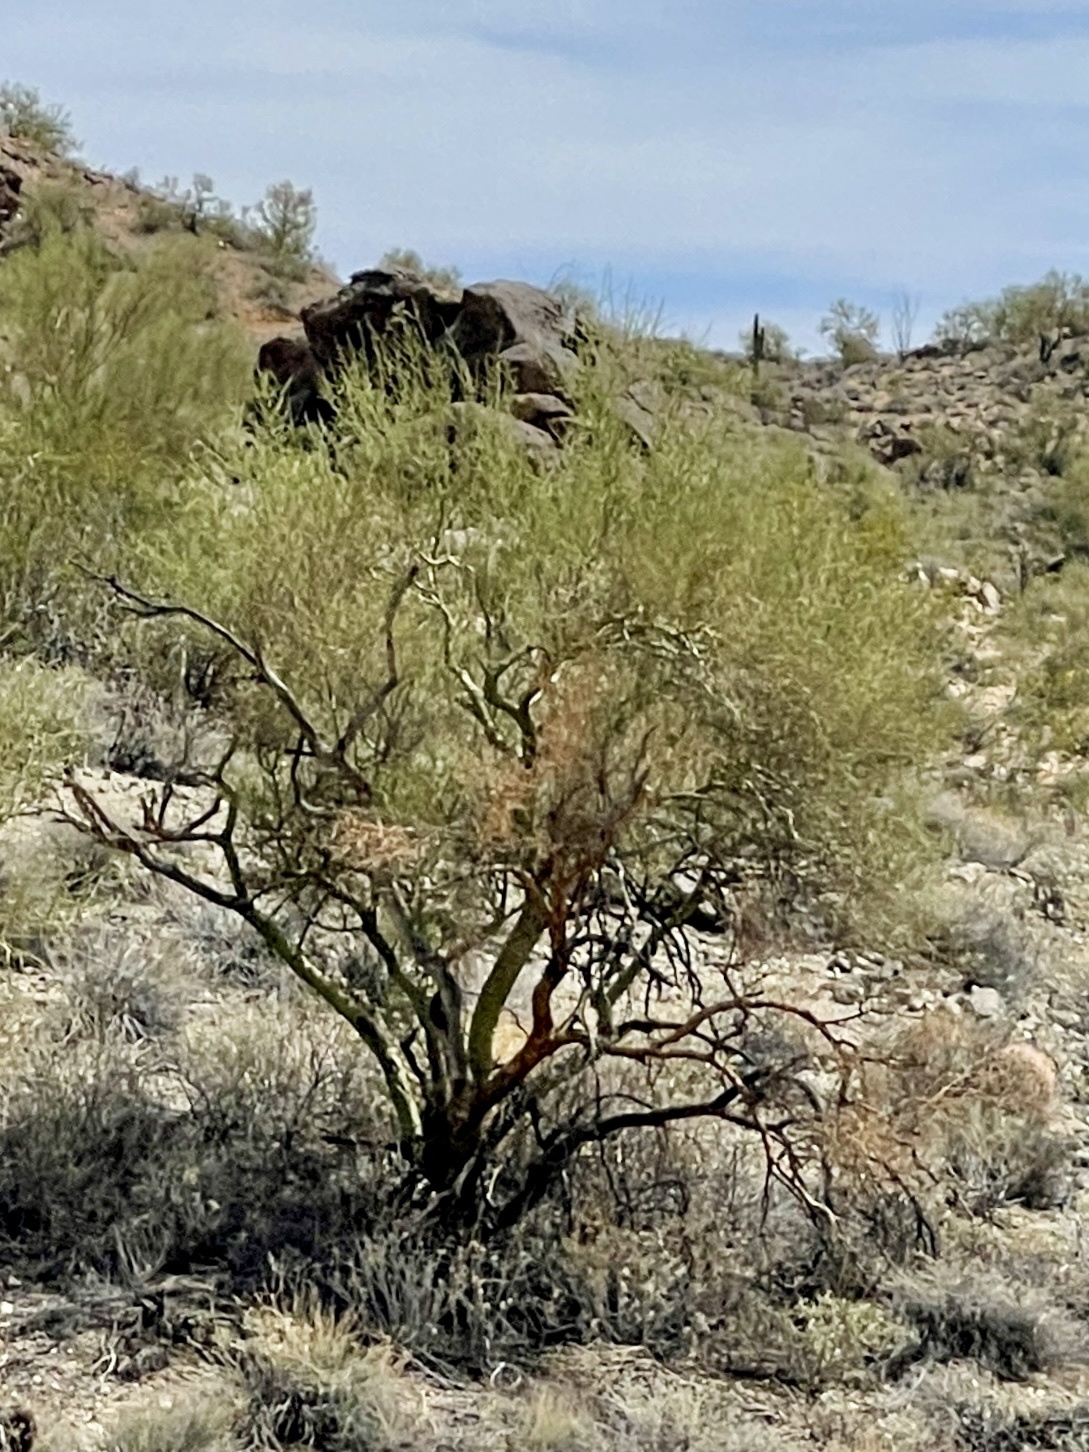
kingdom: Plantae
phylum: Tracheophyta
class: Magnoliopsida
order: Fabales
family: Fabaceae
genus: Parkinsonia
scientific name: Parkinsonia microphylla
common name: Yellow paloverde
